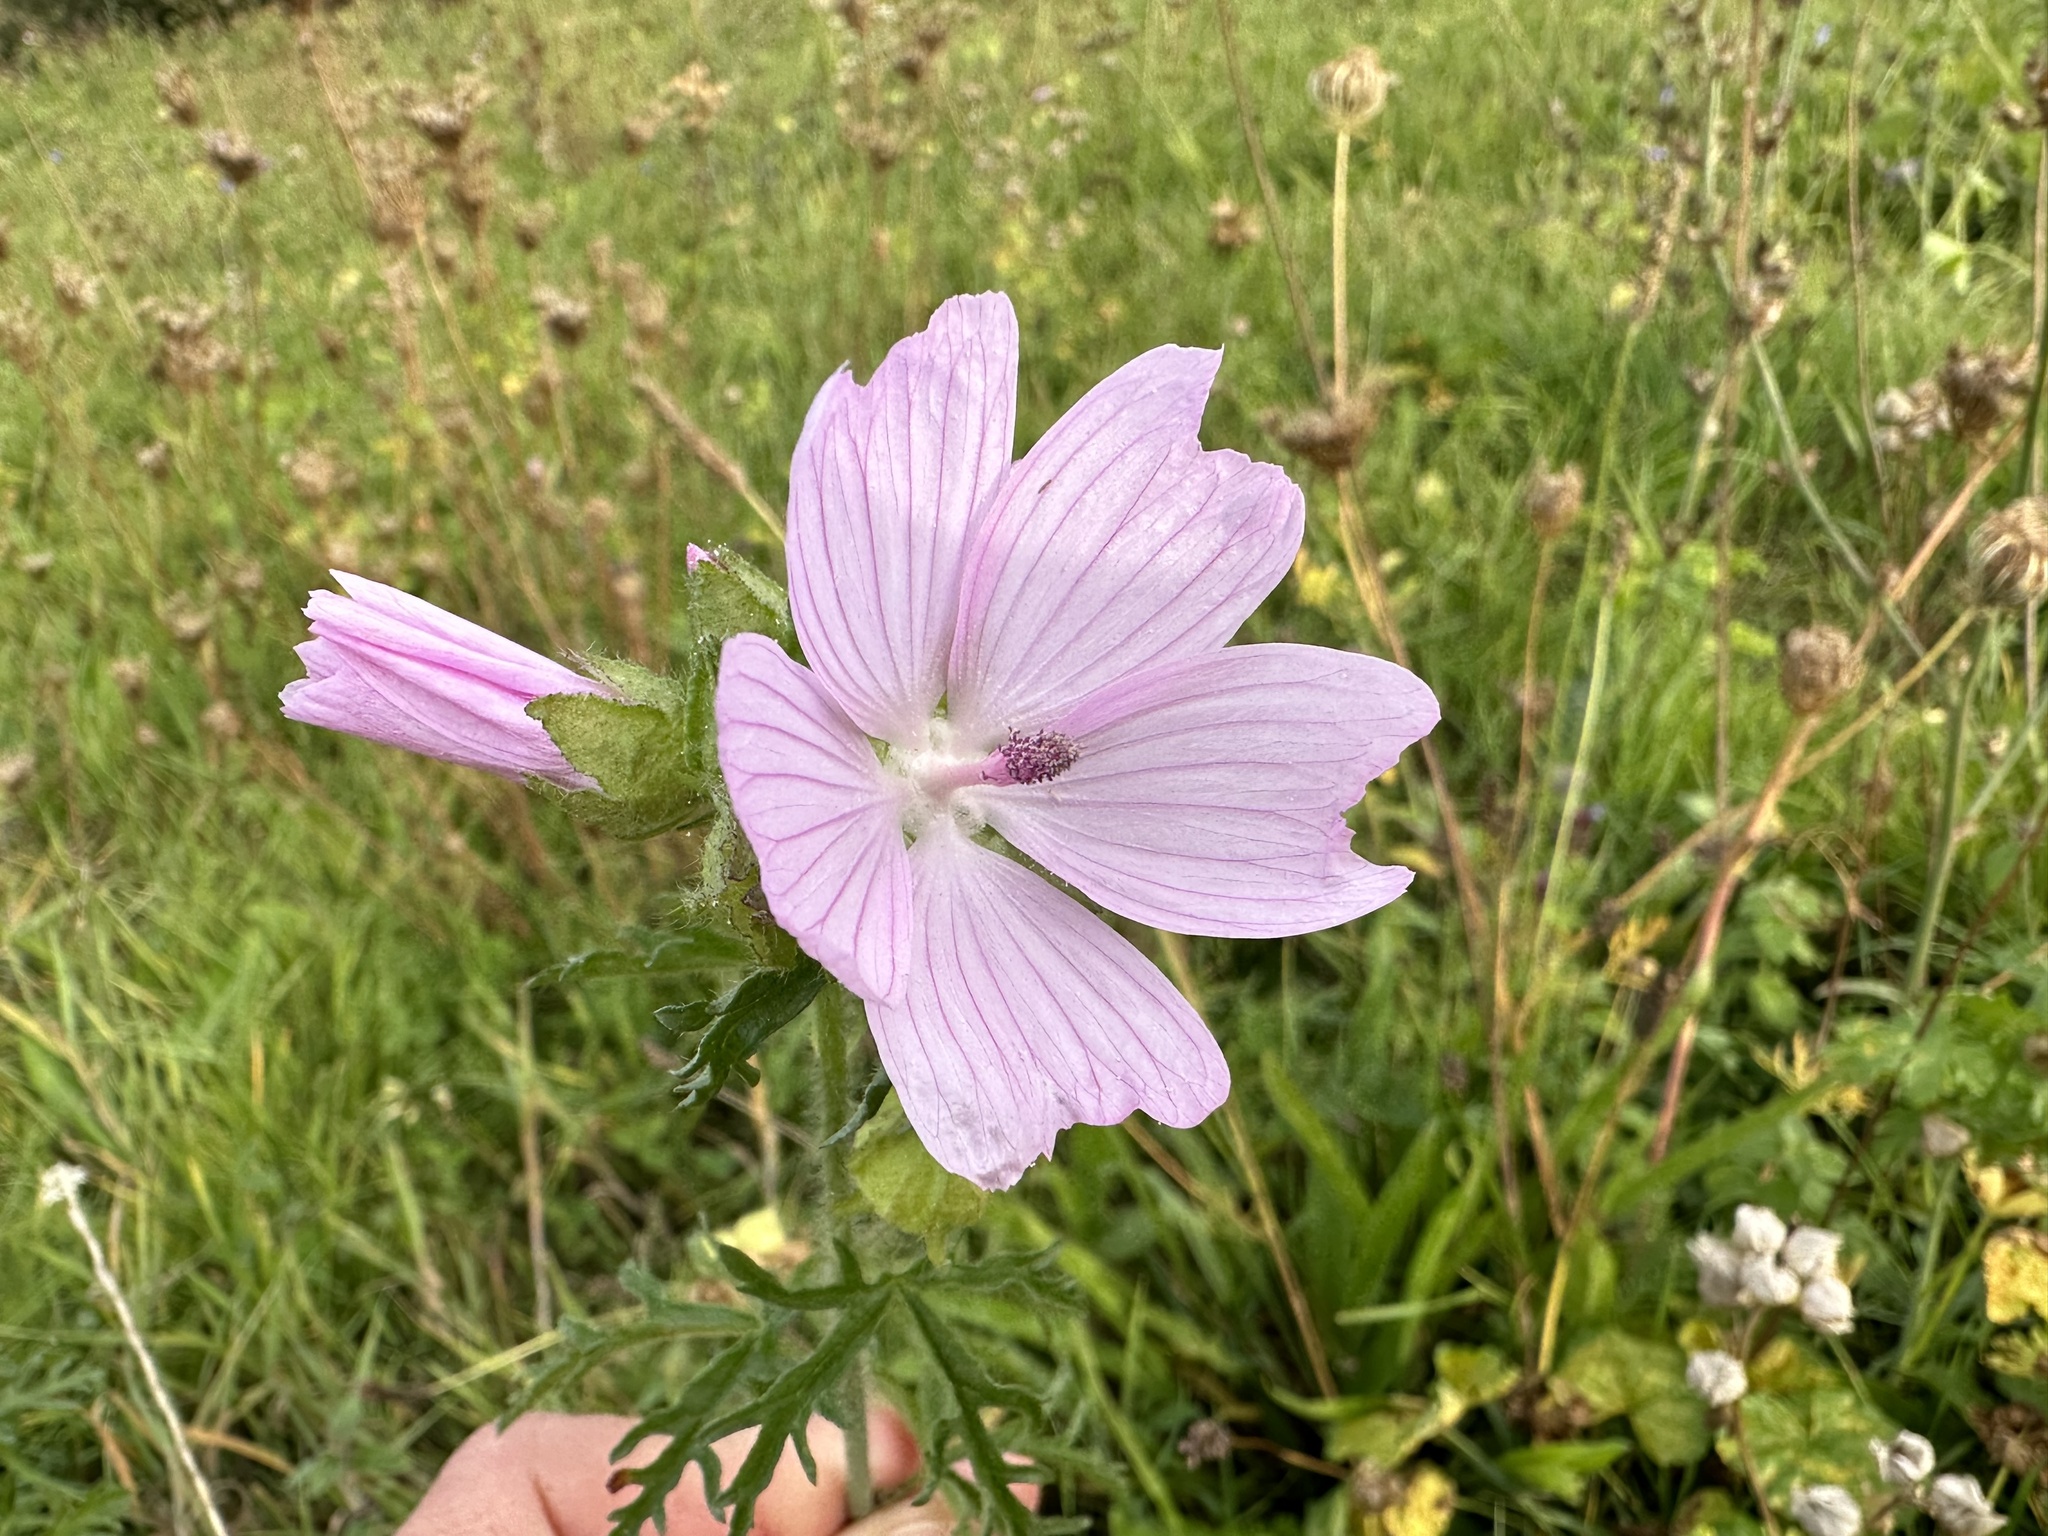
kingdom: Plantae
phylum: Tracheophyta
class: Magnoliopsida
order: Malvales
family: Malvaceae
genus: Malva
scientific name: Malva moschata
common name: Musk mallow
